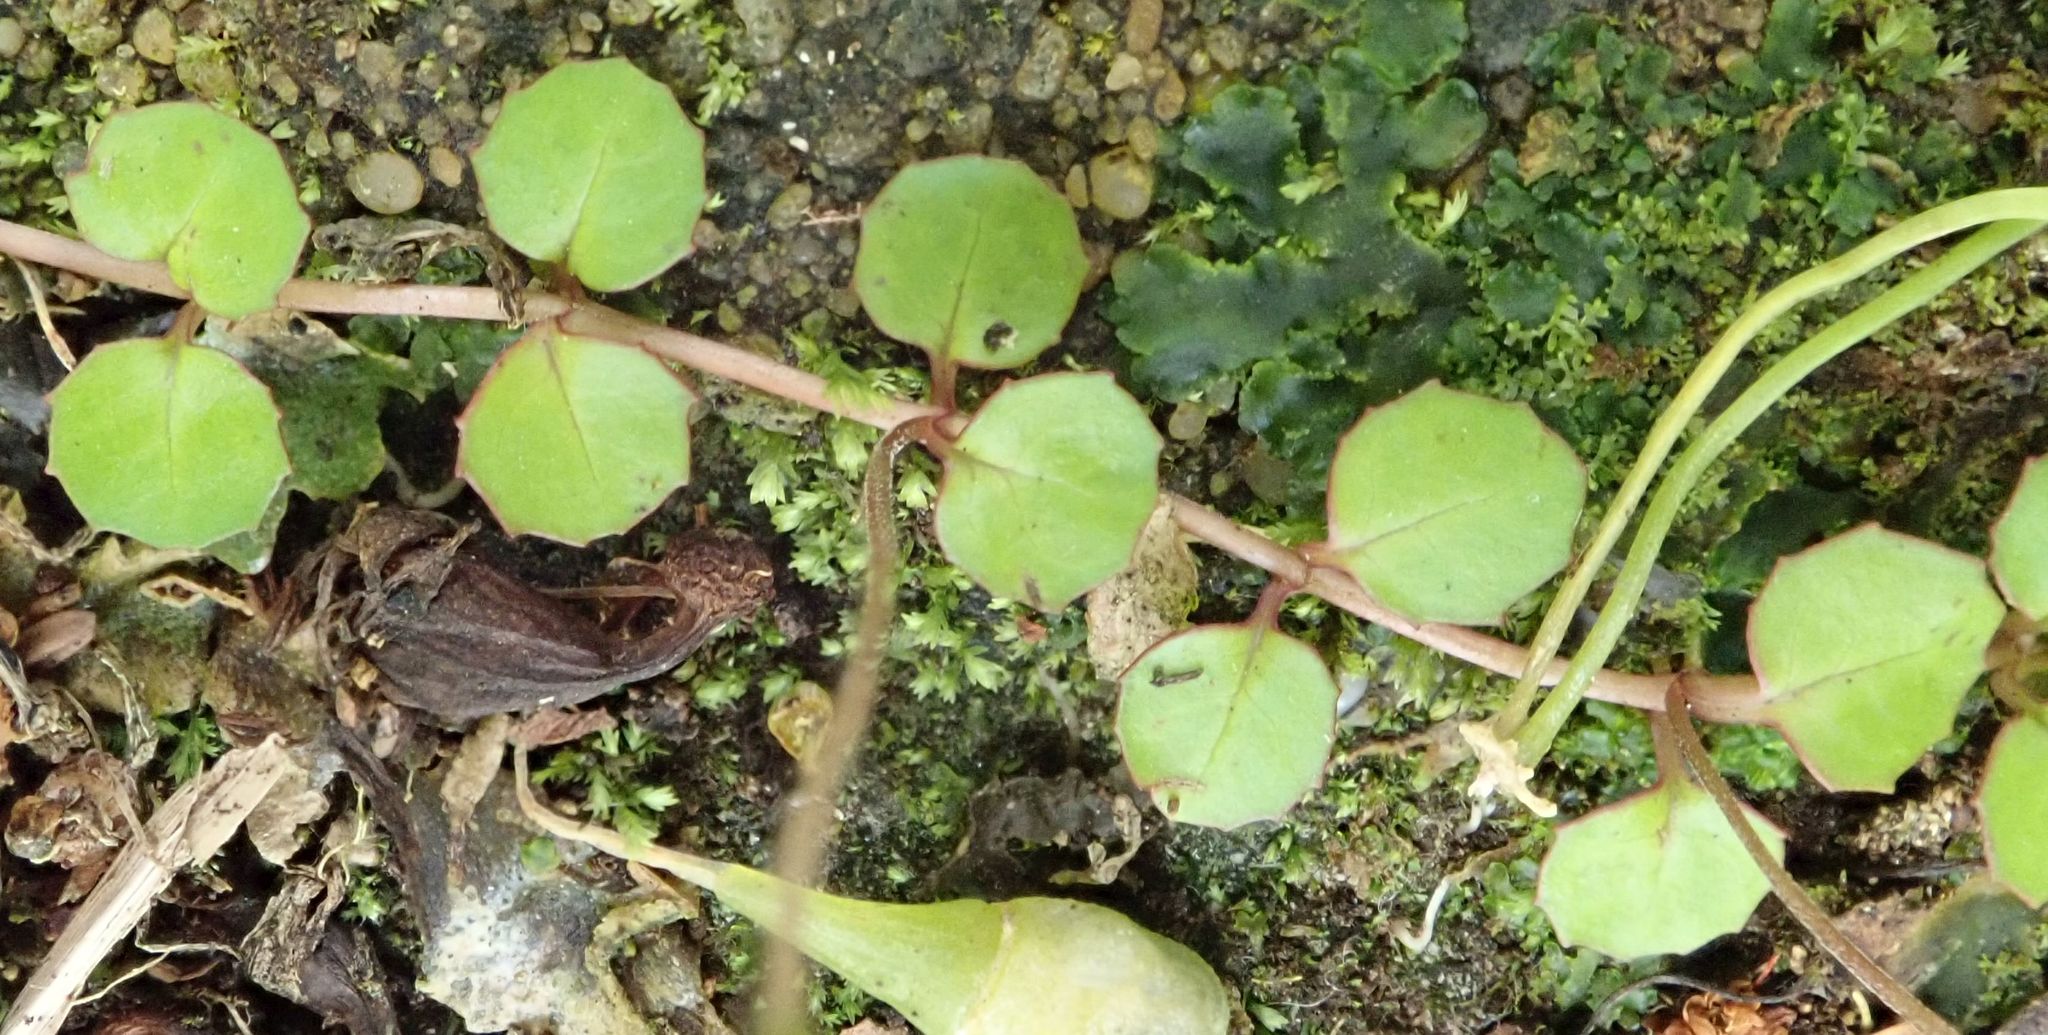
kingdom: Plantae
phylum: Tracheophyta
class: Magnoliopsida
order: Myrtales
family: Onagraceae
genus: Epilobium
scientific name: Epilobium nummularifolium
